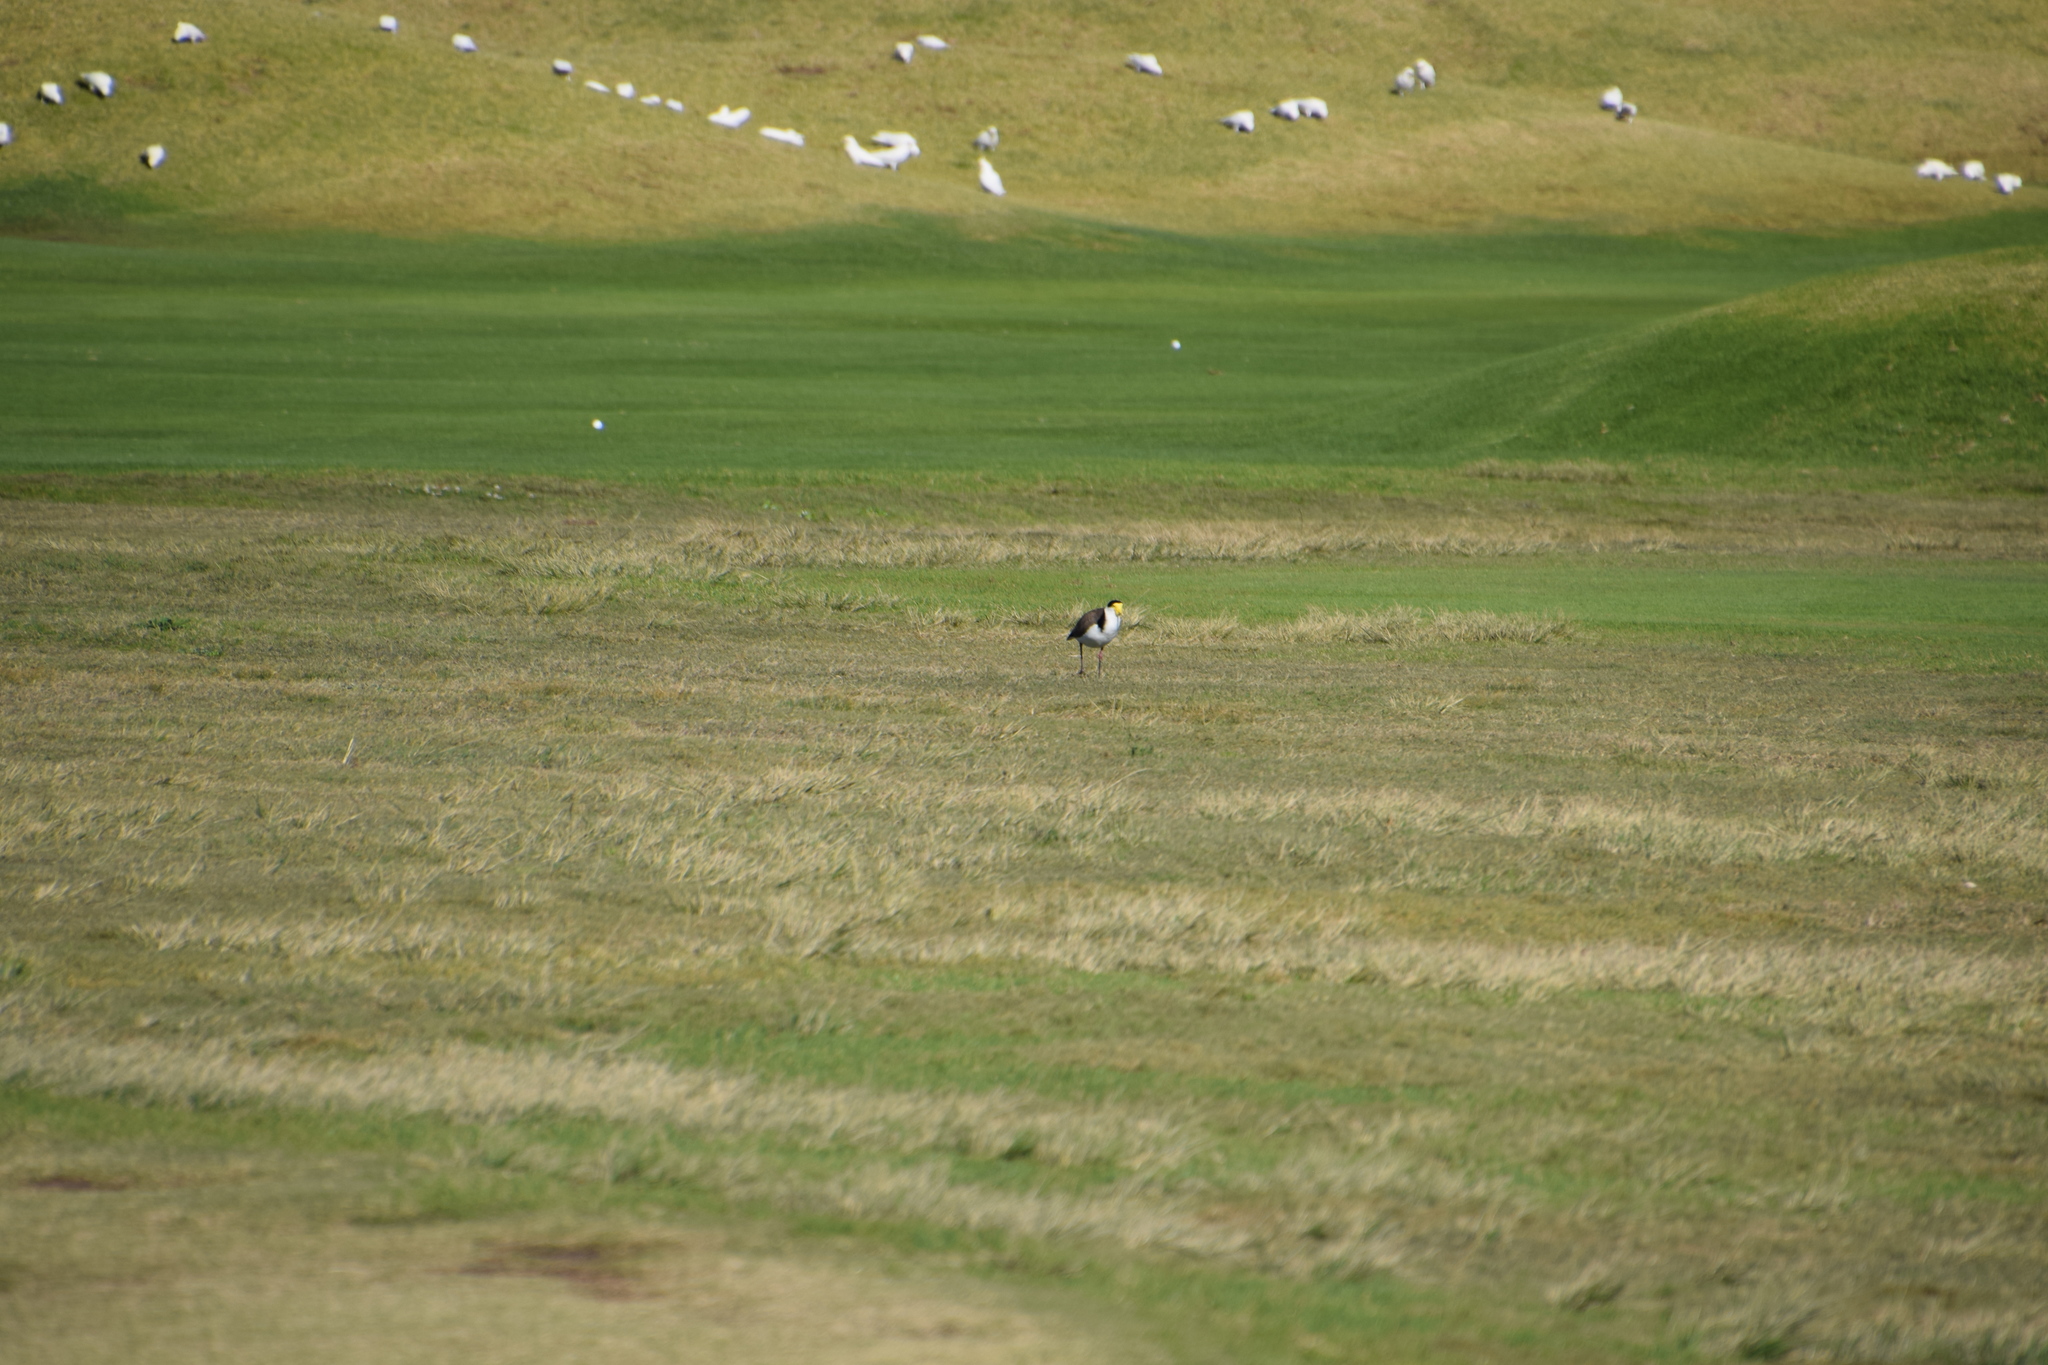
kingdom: Animalia
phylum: Chordata
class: Aves
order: Charadriiformes
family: Charadriidae
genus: Vanellus
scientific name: Vanellus miles
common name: Masked lapwing
